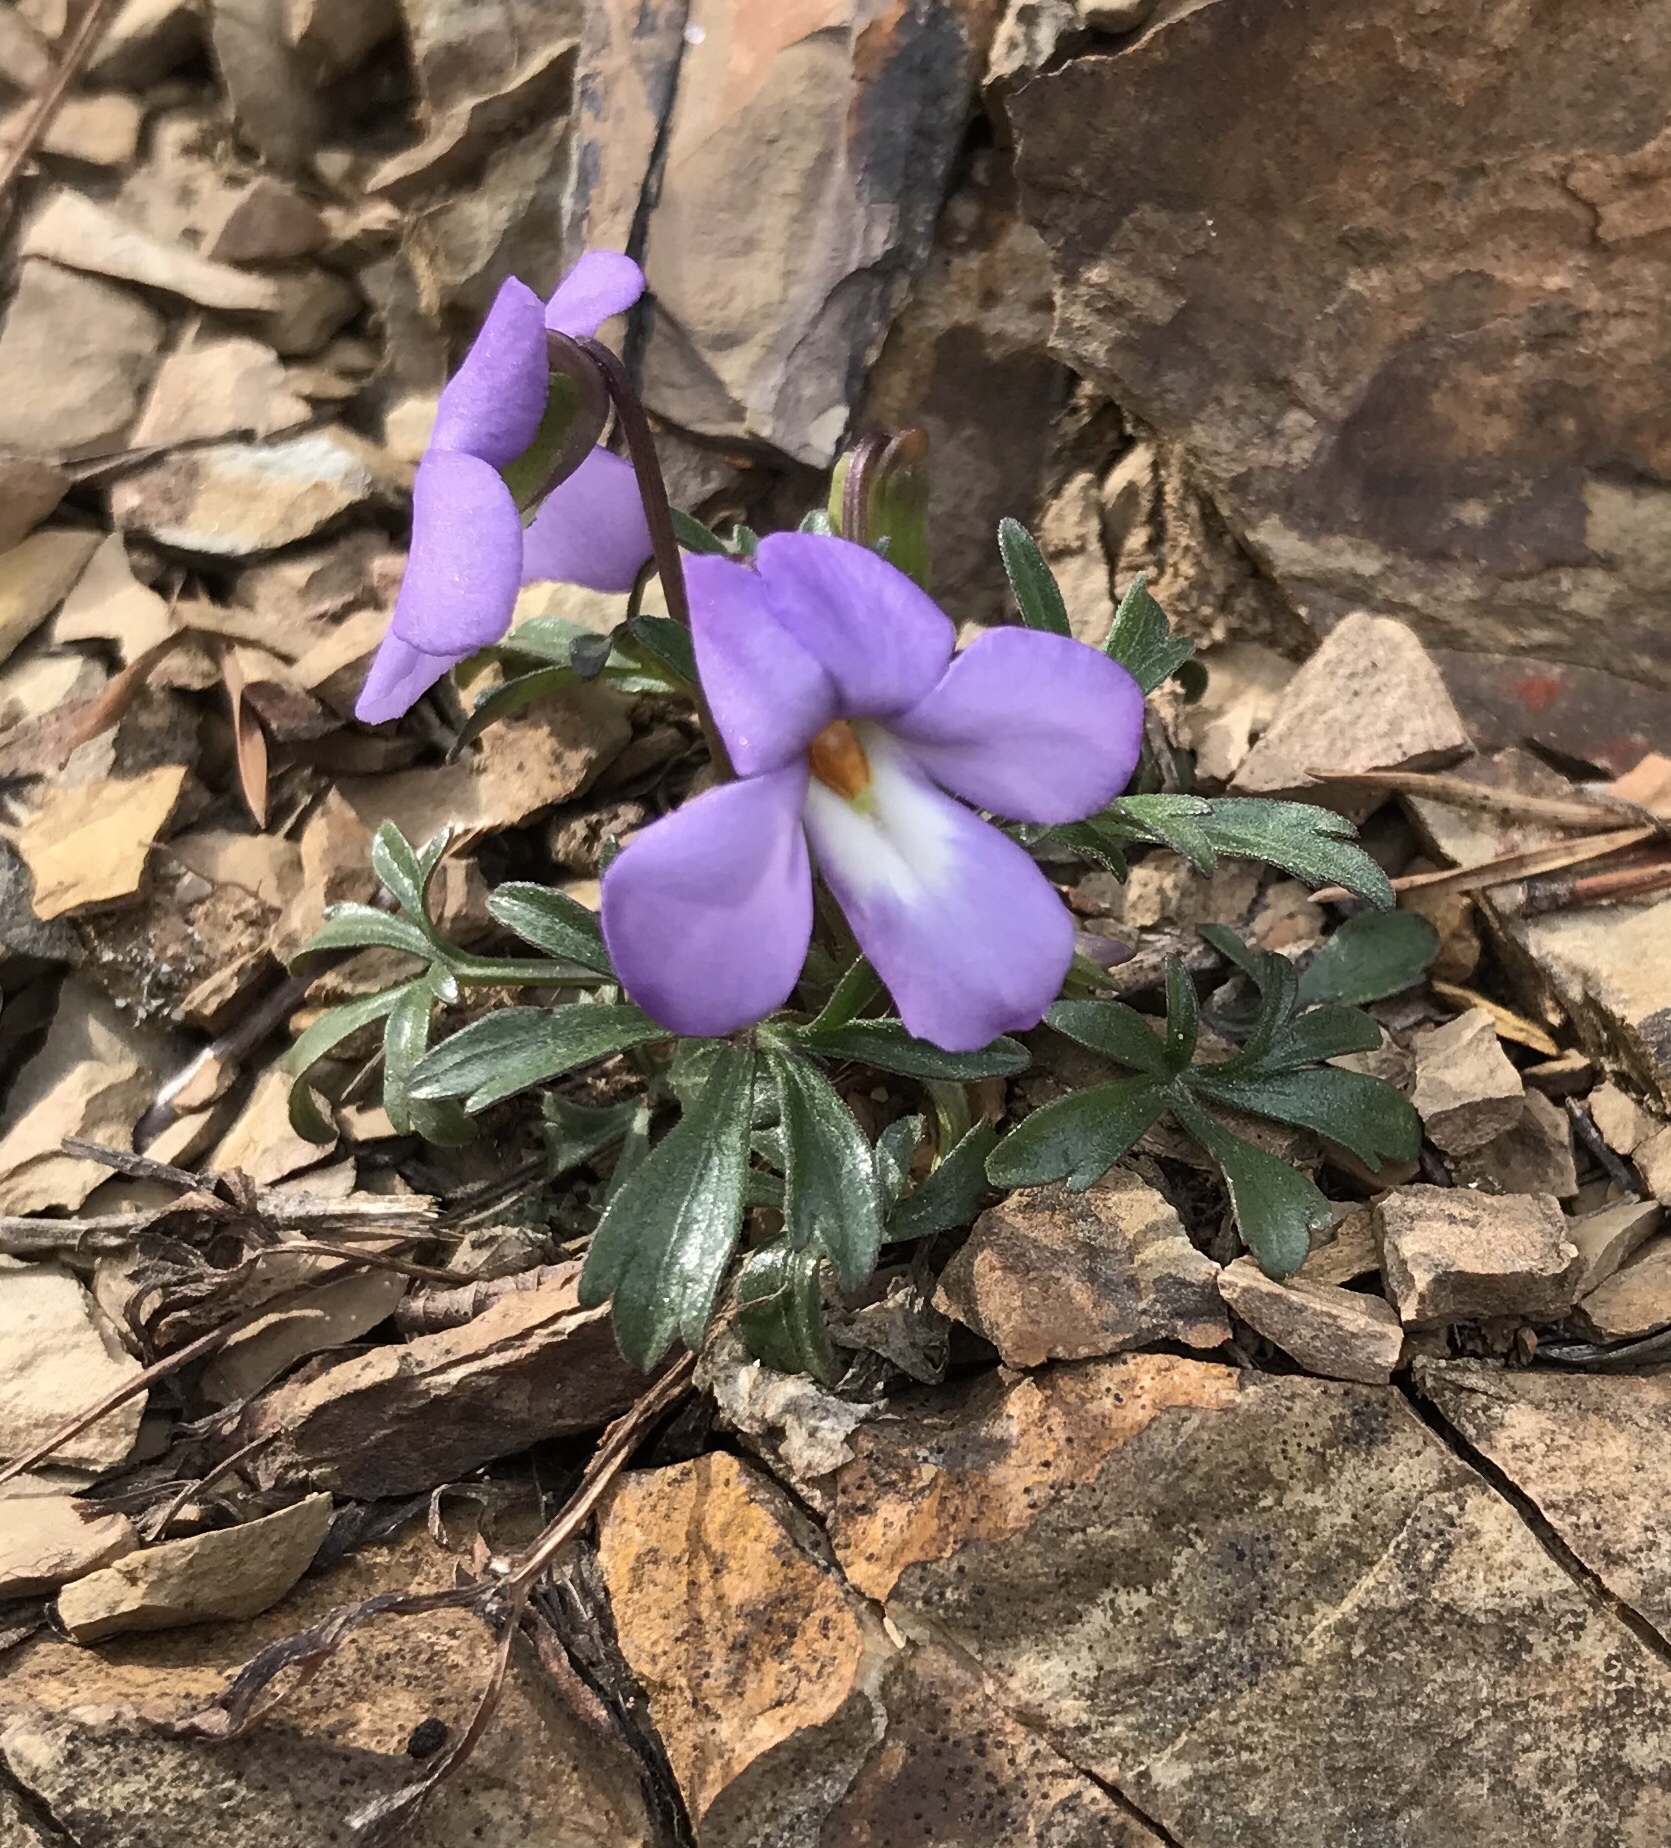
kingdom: Plantae
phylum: Tracheophyta
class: Magnoliopsida
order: Malpighiales
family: Violaceae
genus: Viola
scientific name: Viola pedata
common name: Pansy violet
